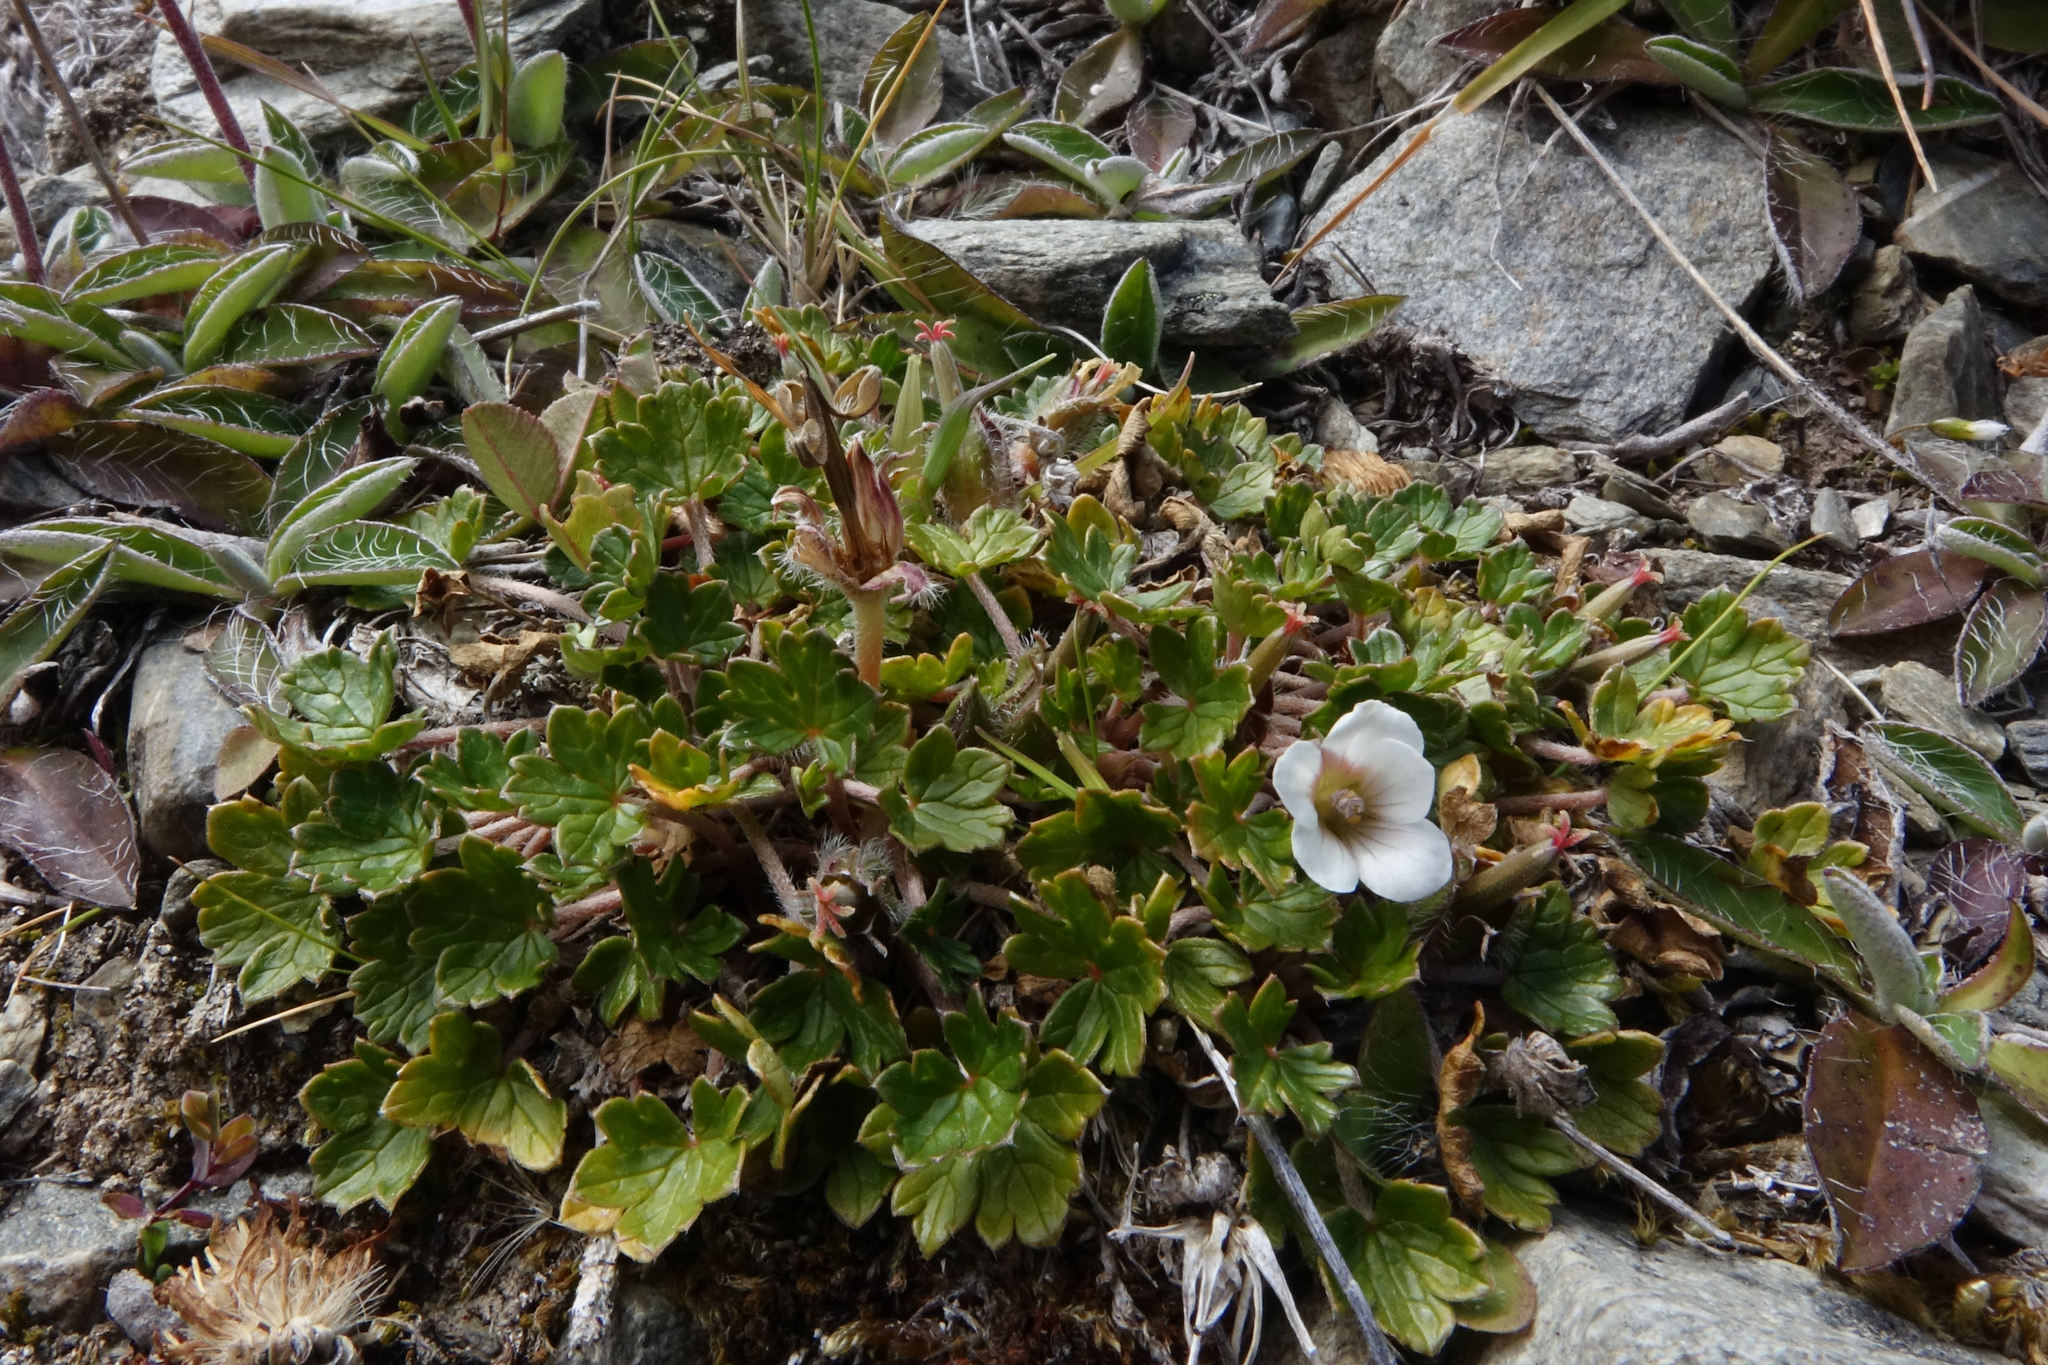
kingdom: Plantae
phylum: Tracheophyta
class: Magnoliopsida
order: Geraniales
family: Geraniaceae
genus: Geranium
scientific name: Geranium brevicaule
